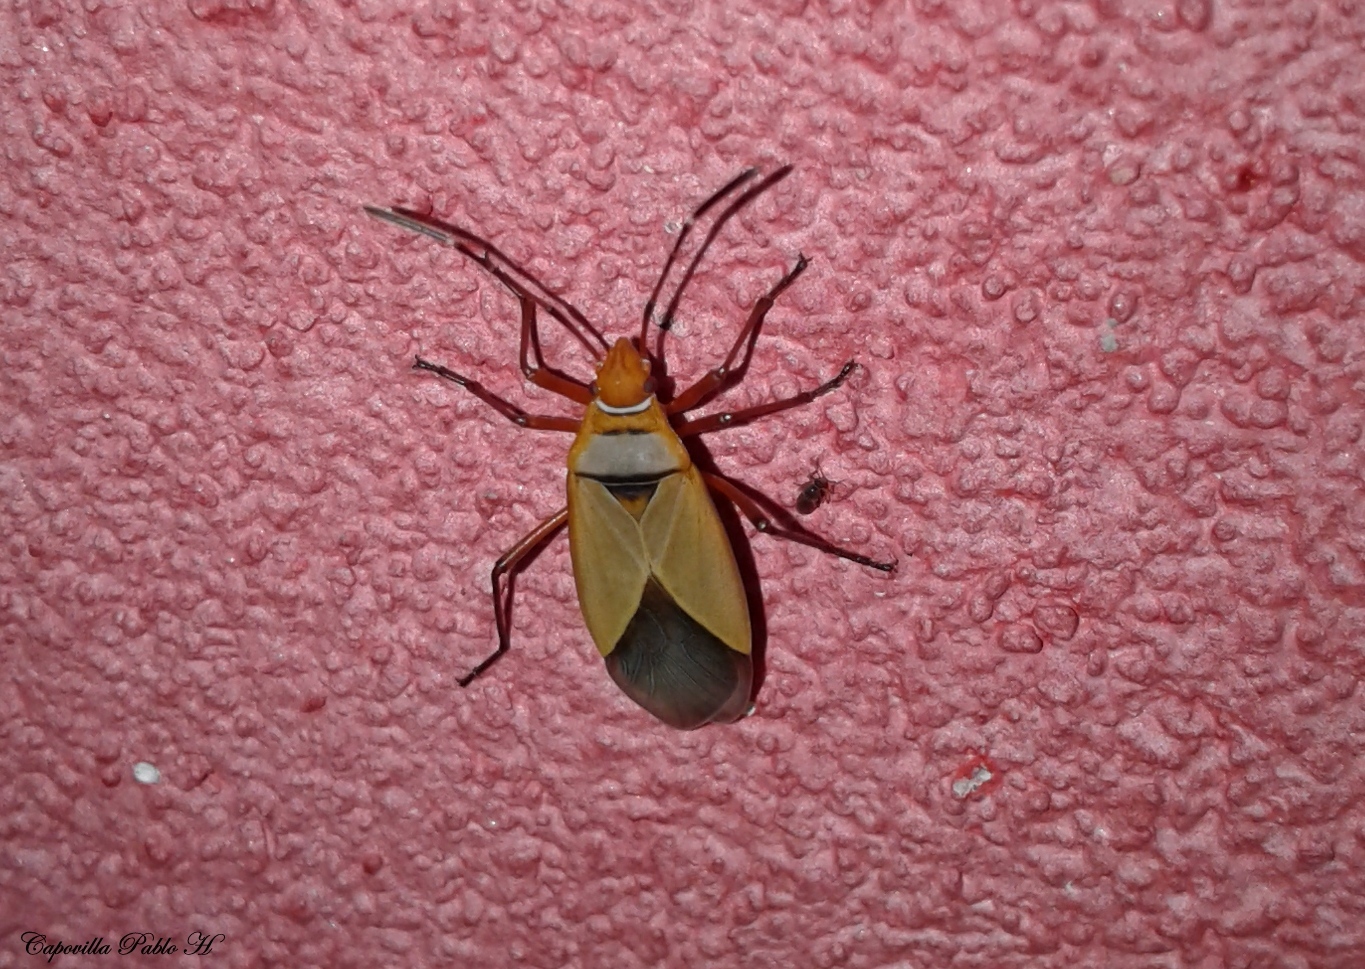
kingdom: Animalia
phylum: Arthropoda
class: Insecta
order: Hemiptera
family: Pyrrhocoridae
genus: Dysdercus
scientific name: Dysdercus
